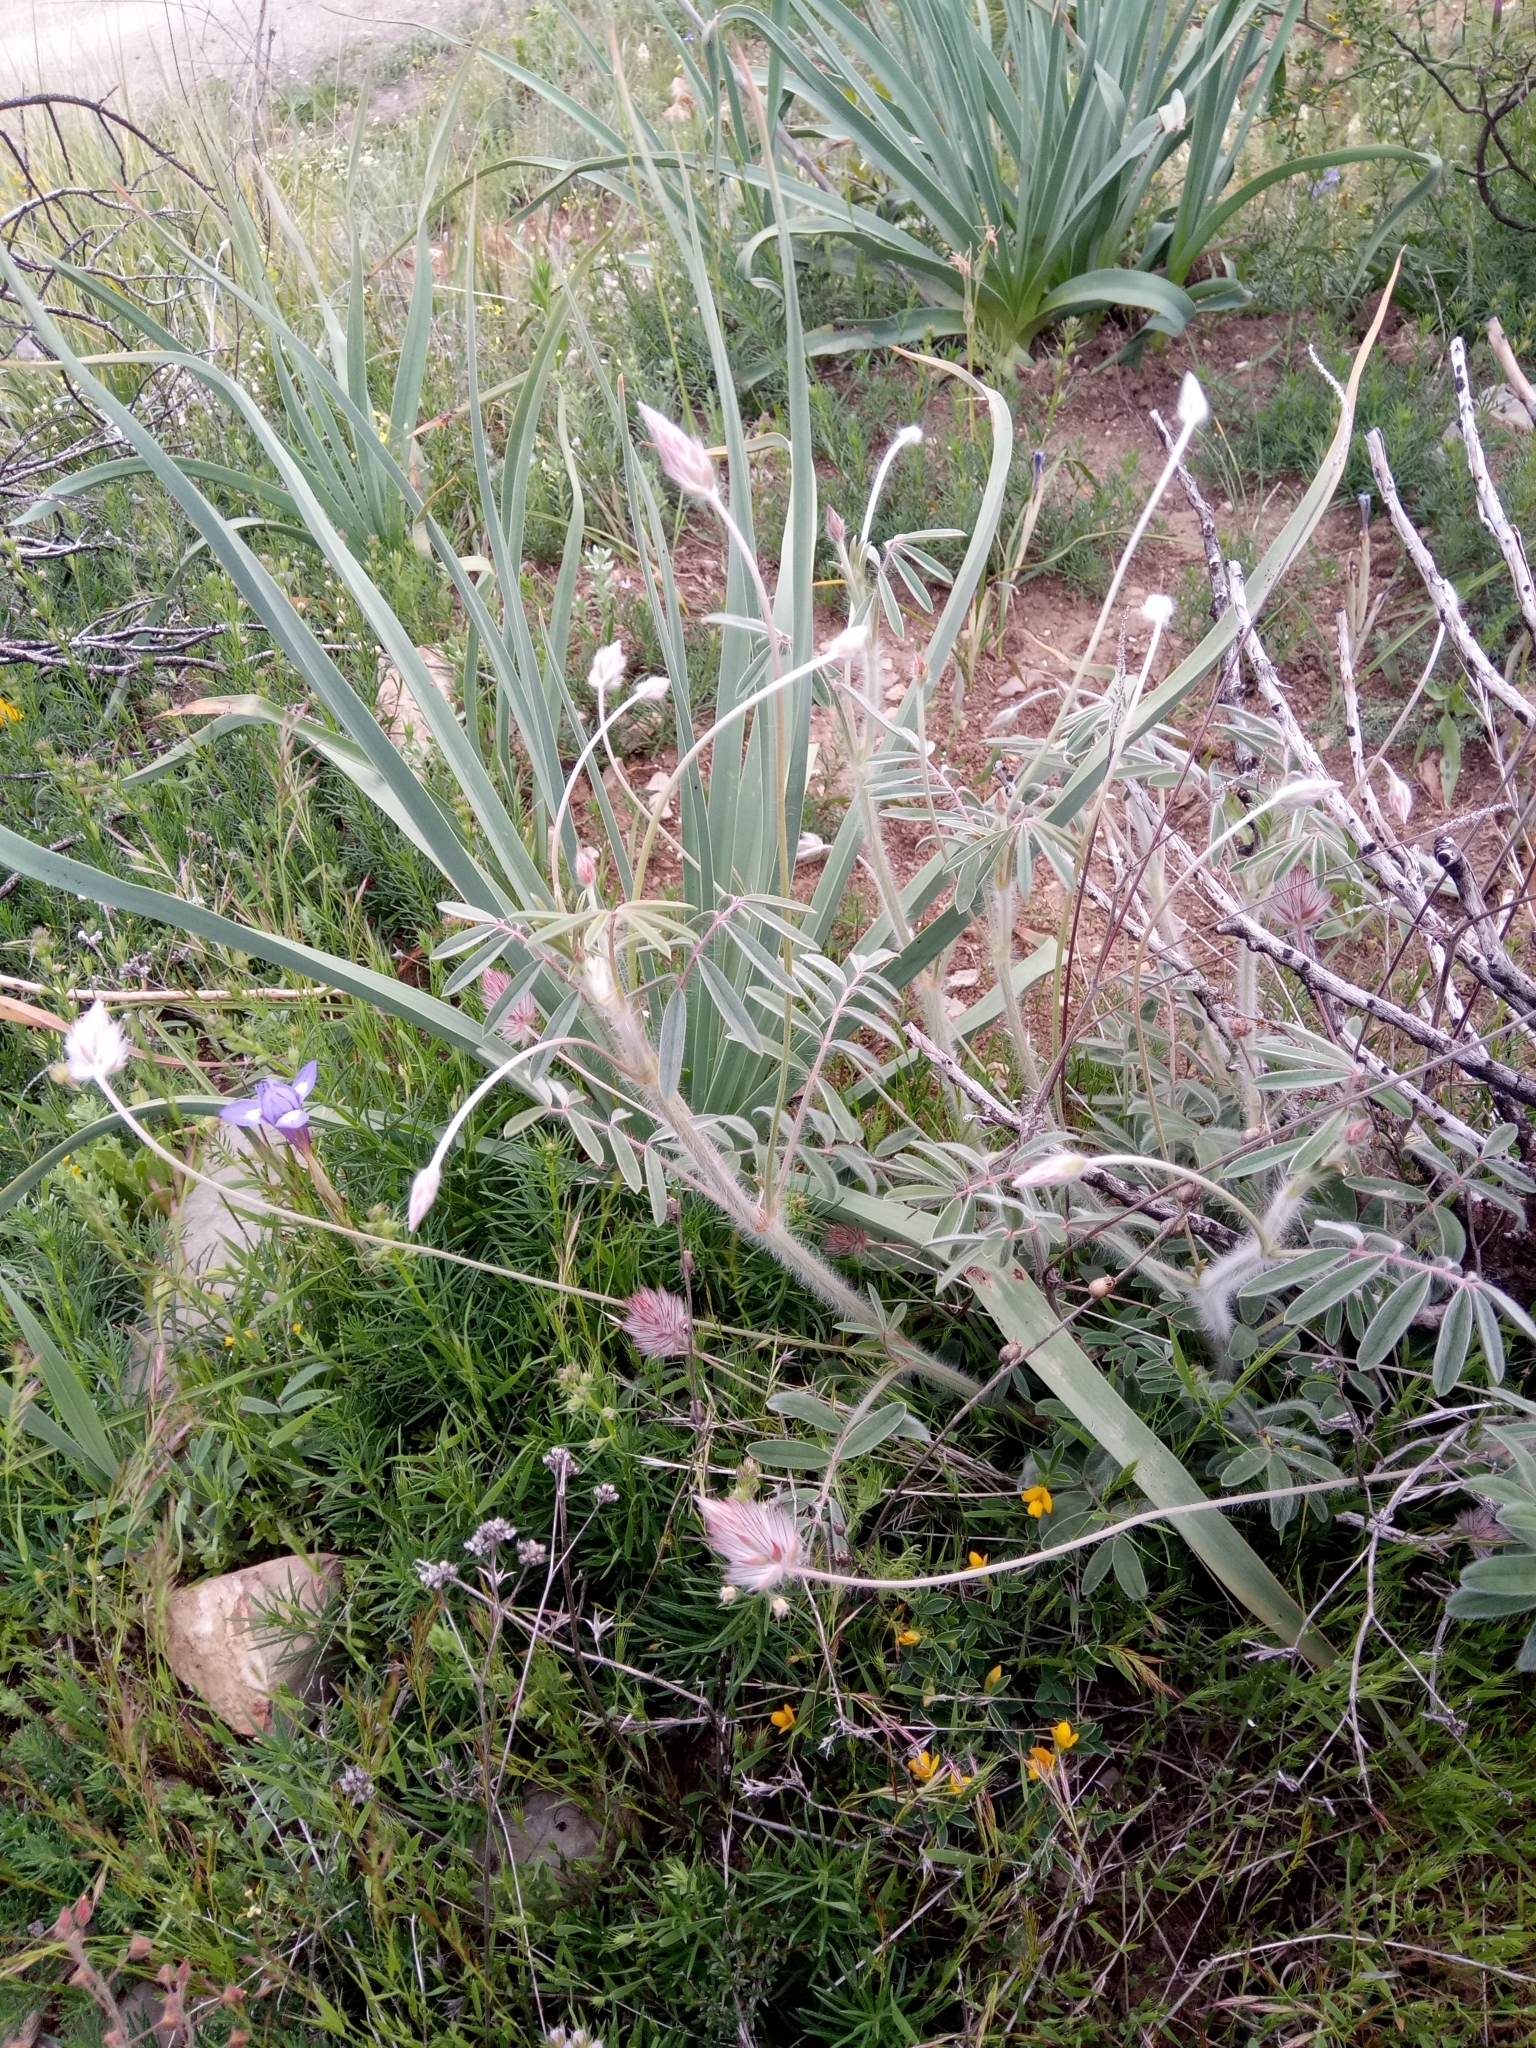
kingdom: Plantae
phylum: Tracheophyta
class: Magnoliopsida
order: Fabales
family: Fabaceae
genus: Ebenus
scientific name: Ebenus pinnata
